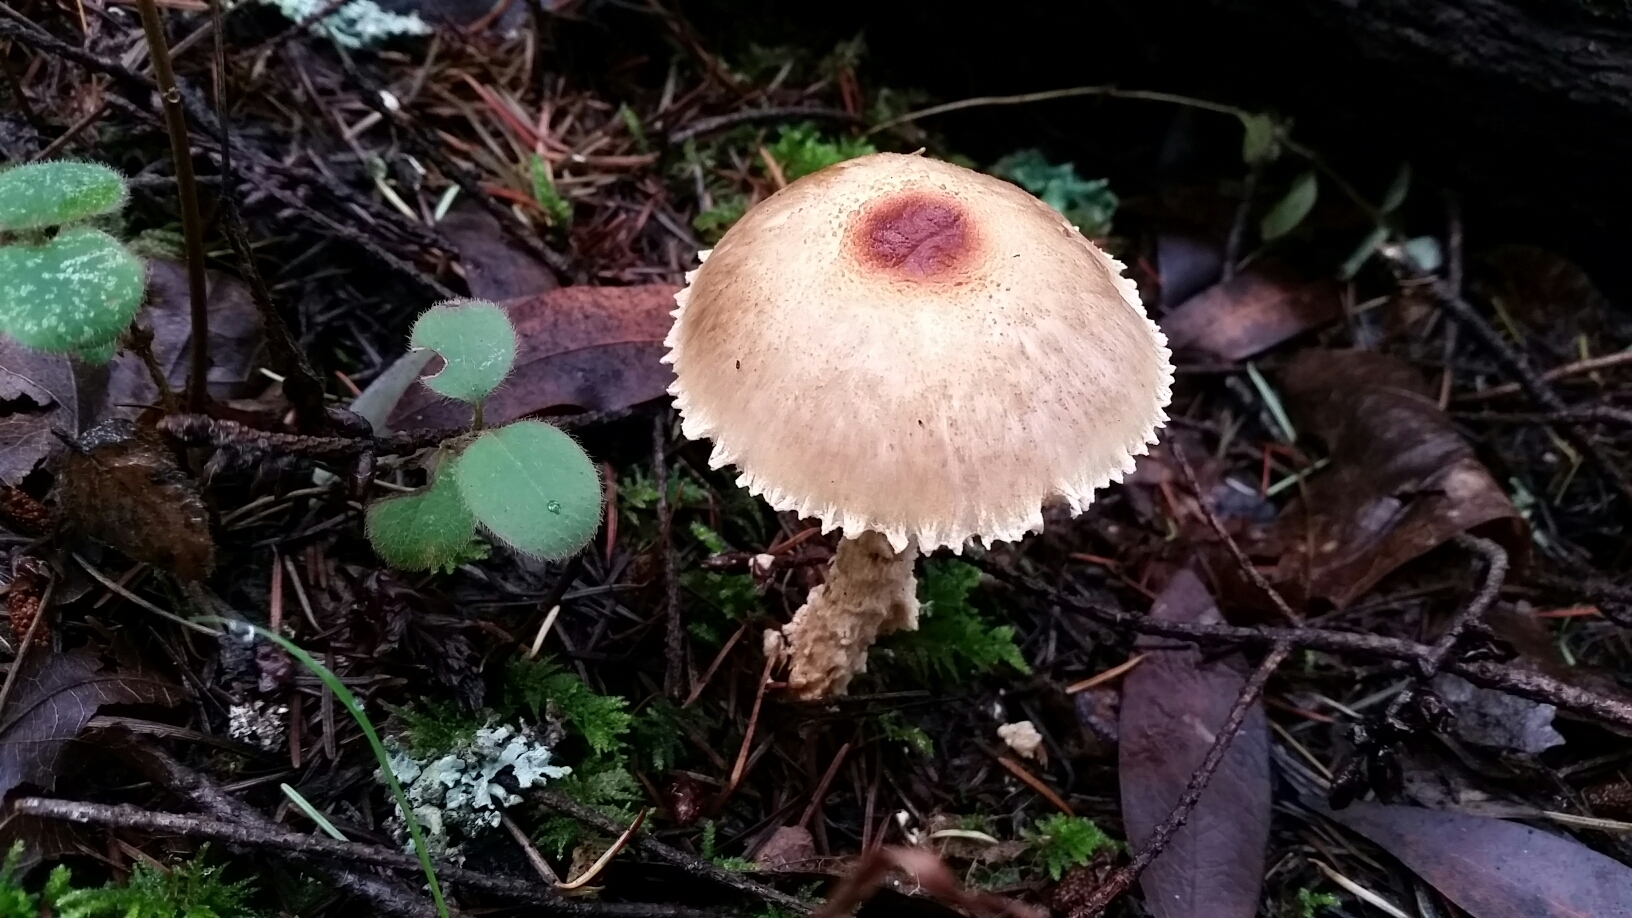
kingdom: Fungi
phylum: Basidiomycota
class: Agaricomycetes
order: Agaricales
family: Agaricaceae
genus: Lepiota
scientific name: Lepiota magnispora
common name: Yellowfoot dapperling
